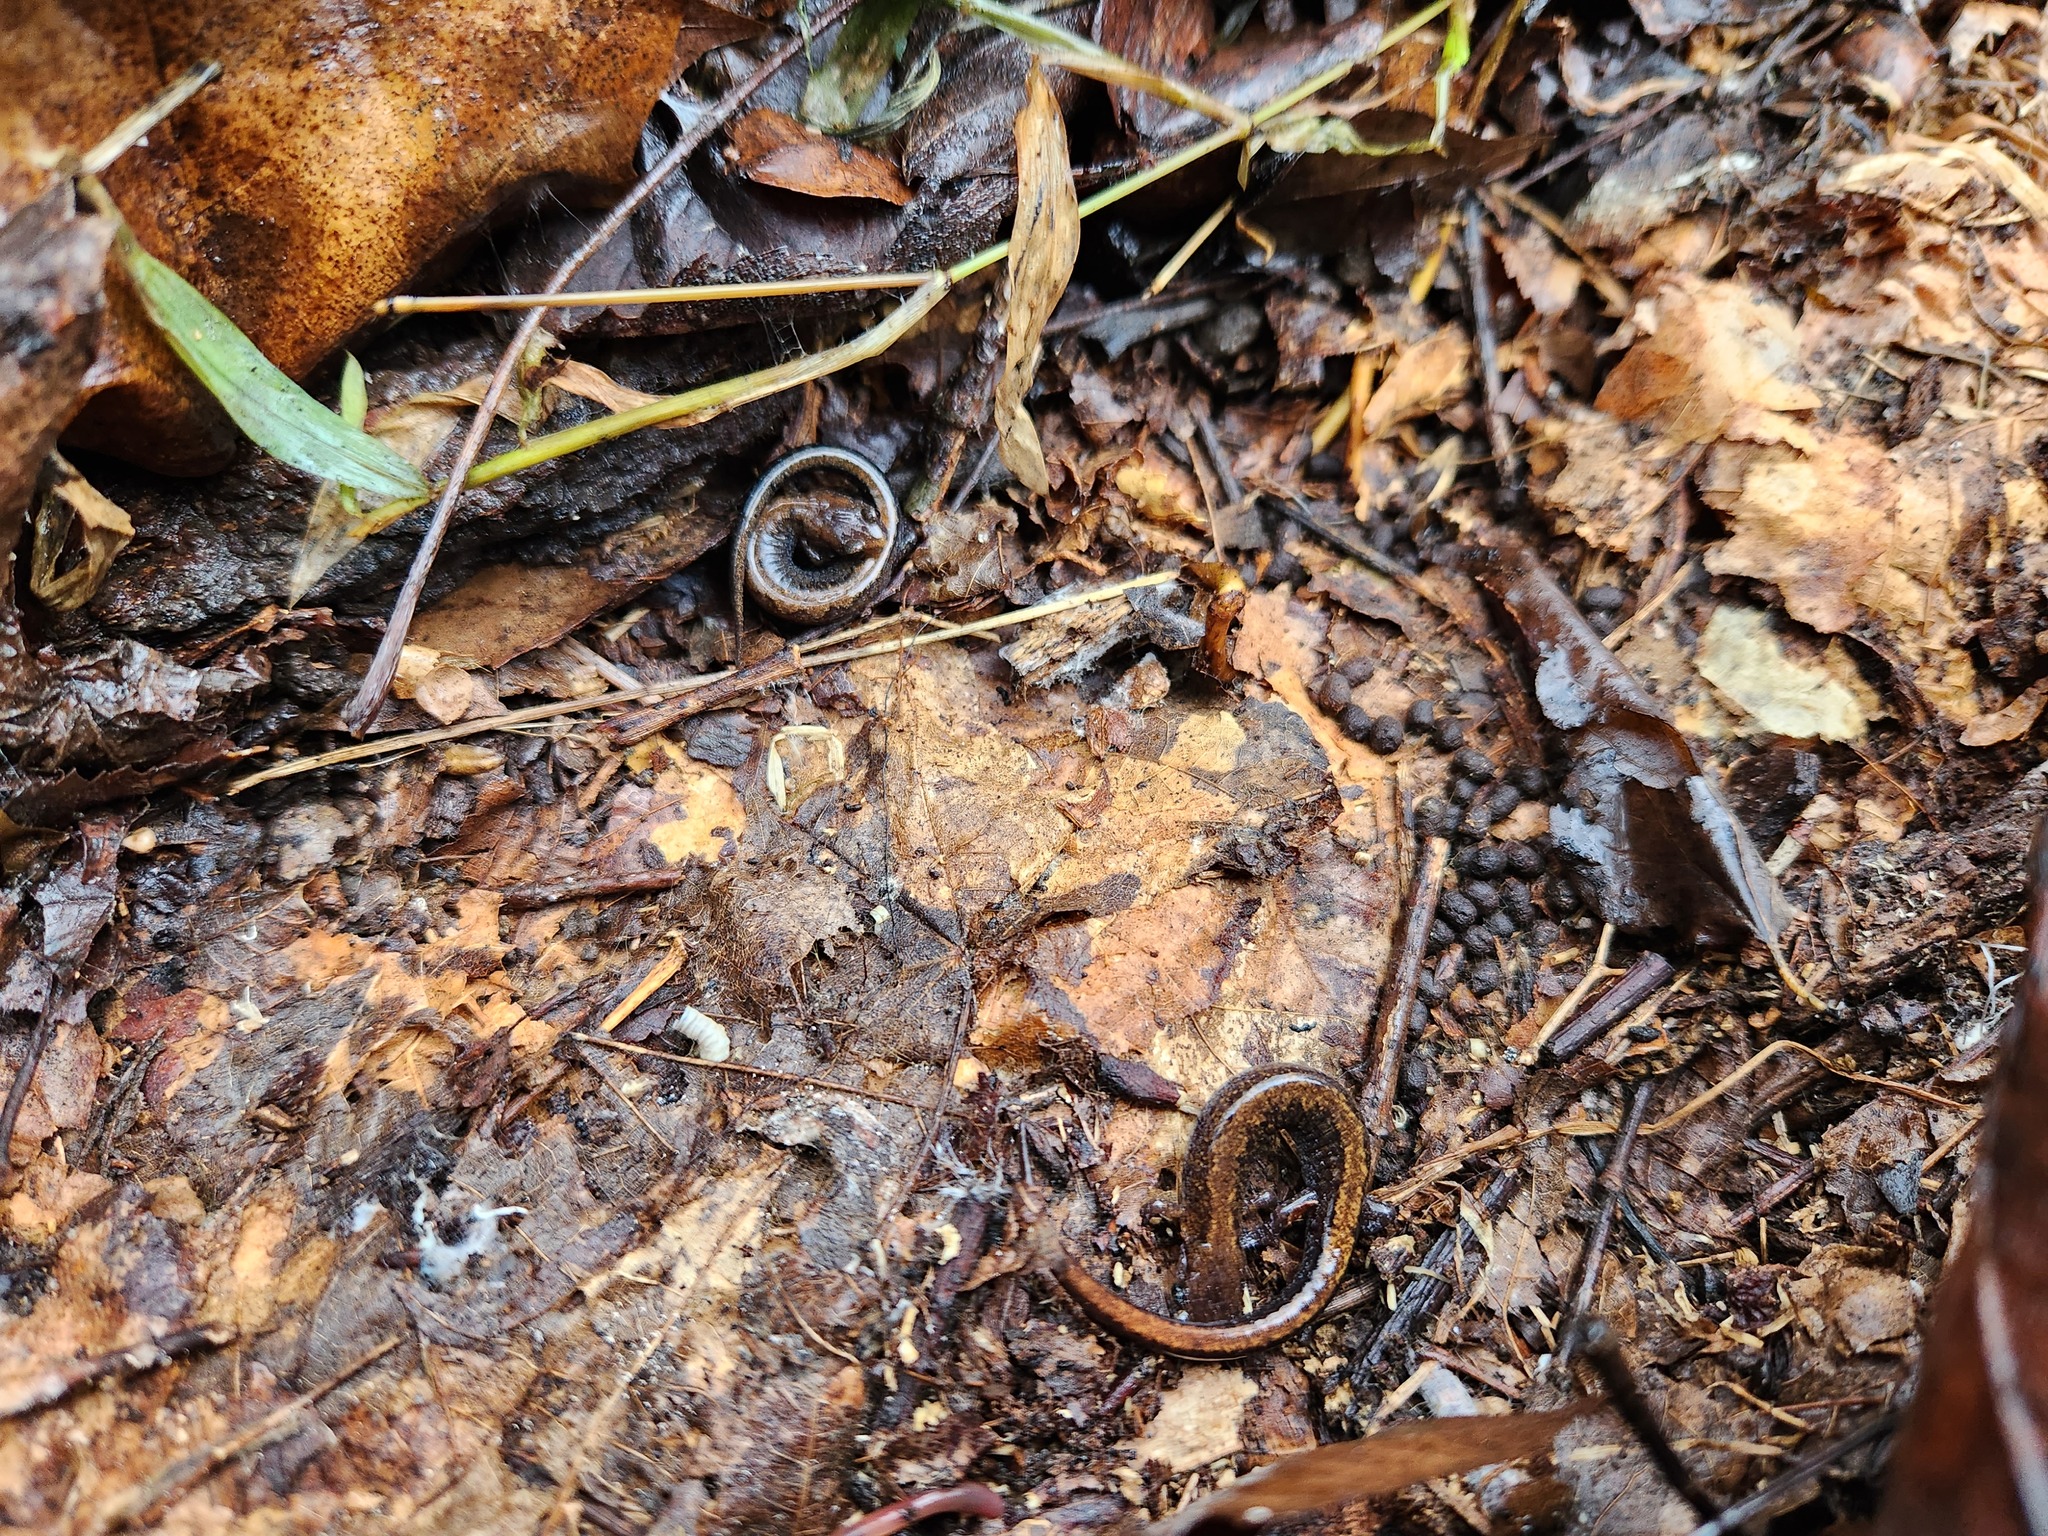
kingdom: Animalia
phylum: Chordata
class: Amphibia
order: Caudata
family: Plethodontidae
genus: Plethodon
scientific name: Plethodon dorsalis
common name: Northern zigzag salamander
